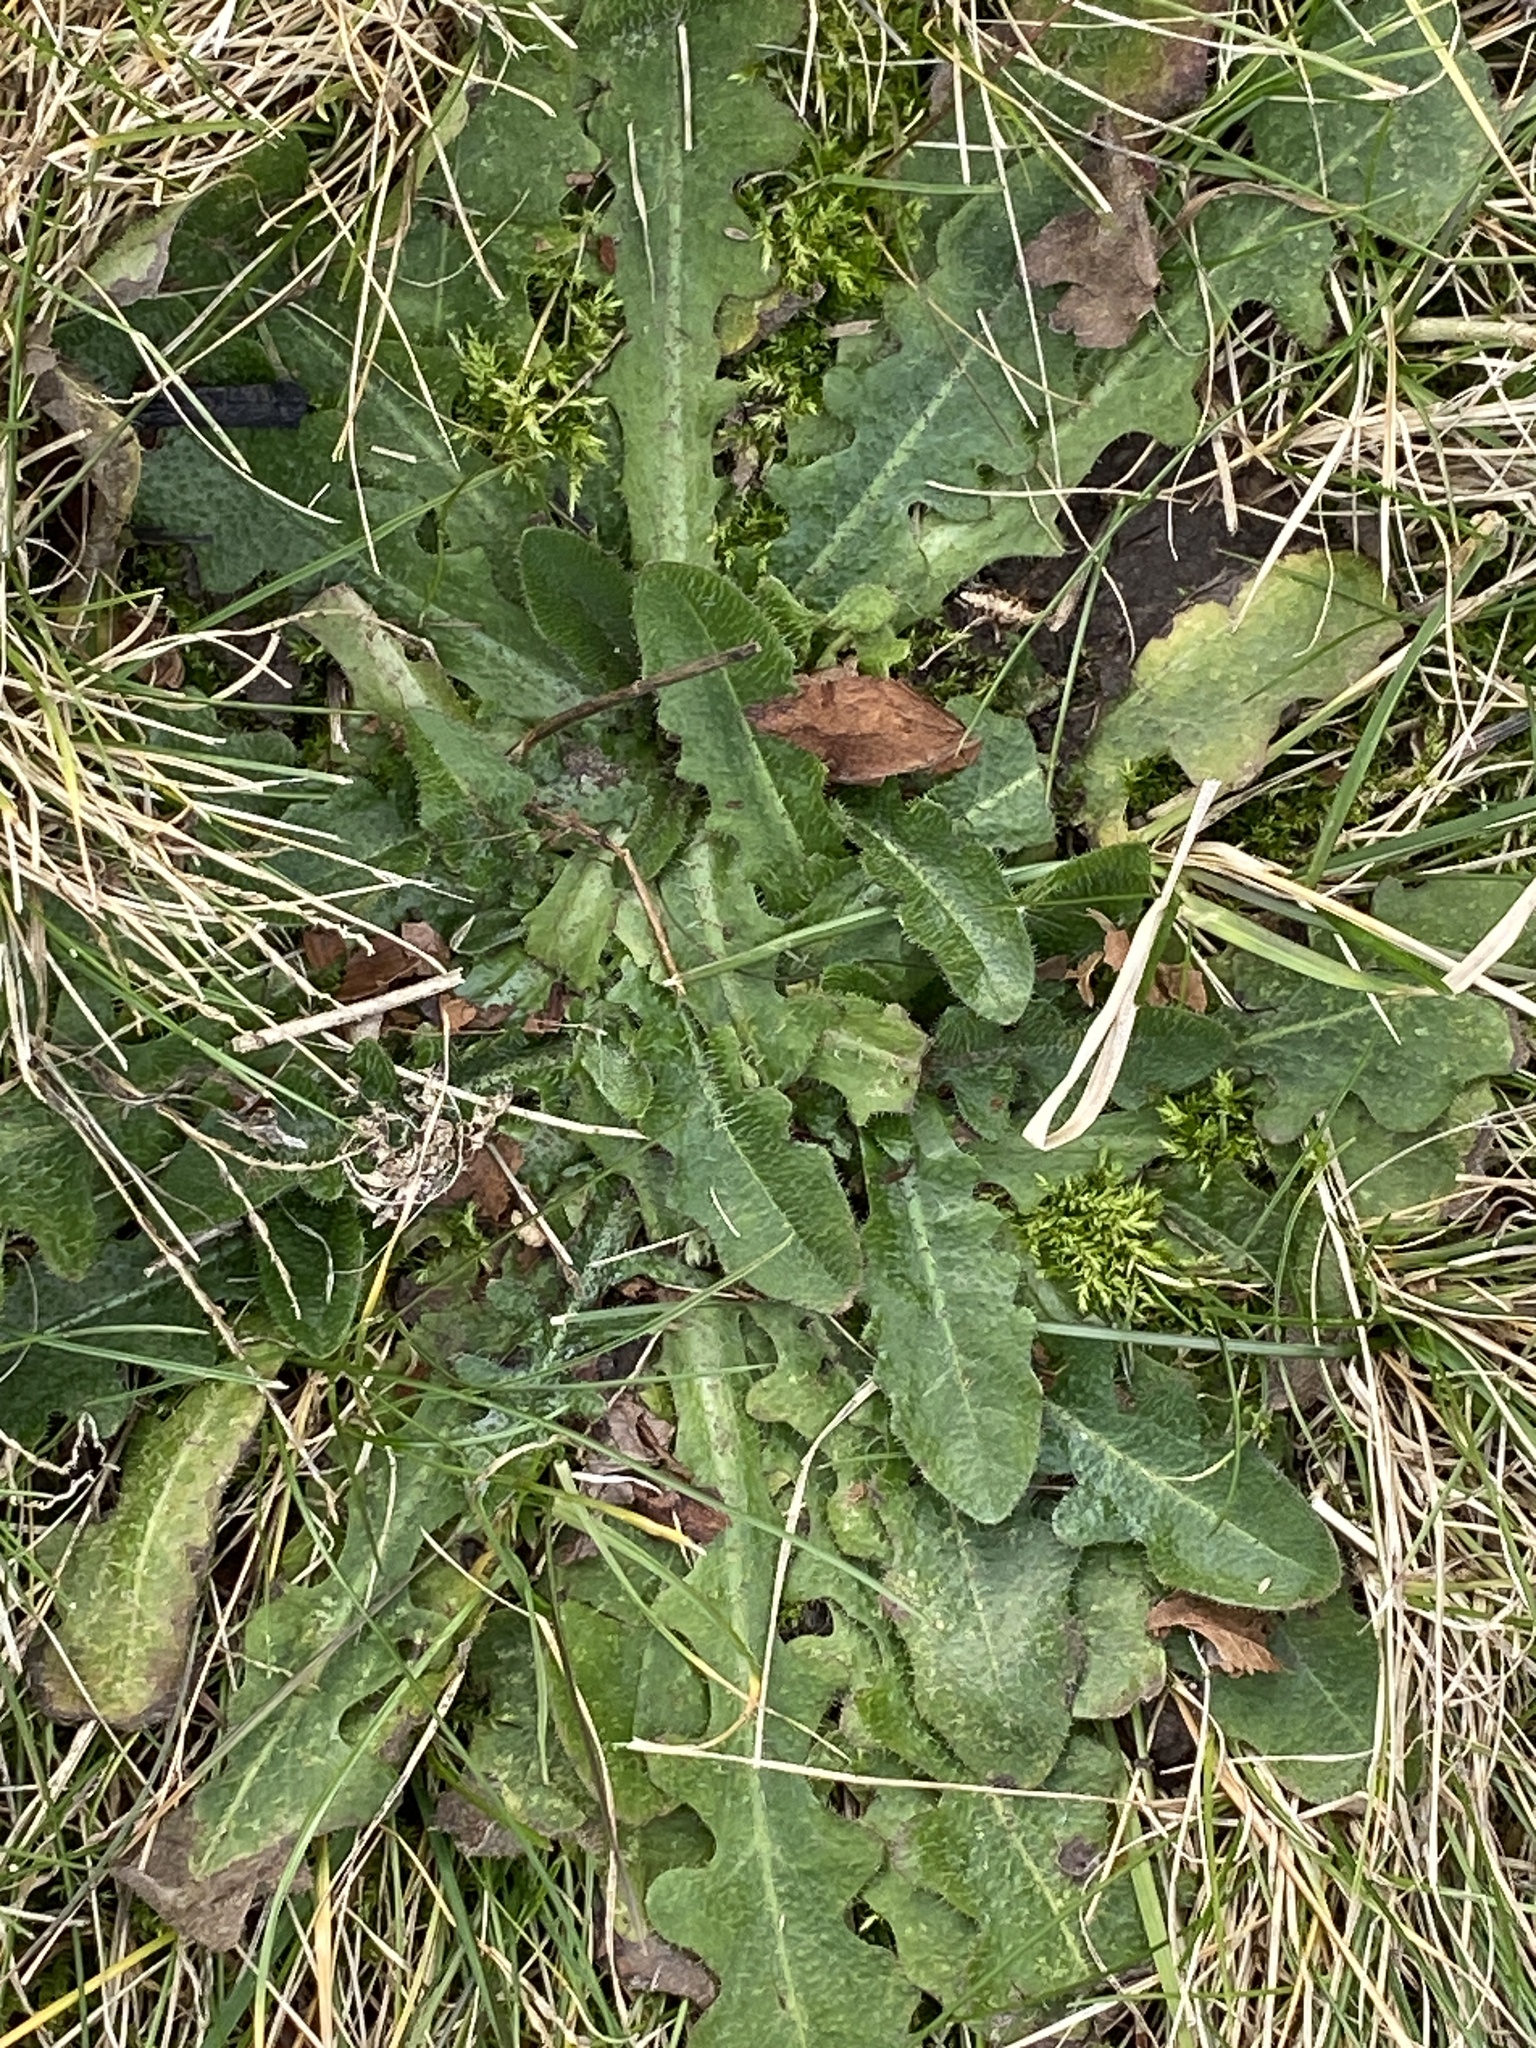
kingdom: Plantae
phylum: Tracheophyta
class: Magnoliopsida
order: Asterales
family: Asteraceae
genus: Hypochaeris
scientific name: Hypochaeris radicata
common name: Flatweed
